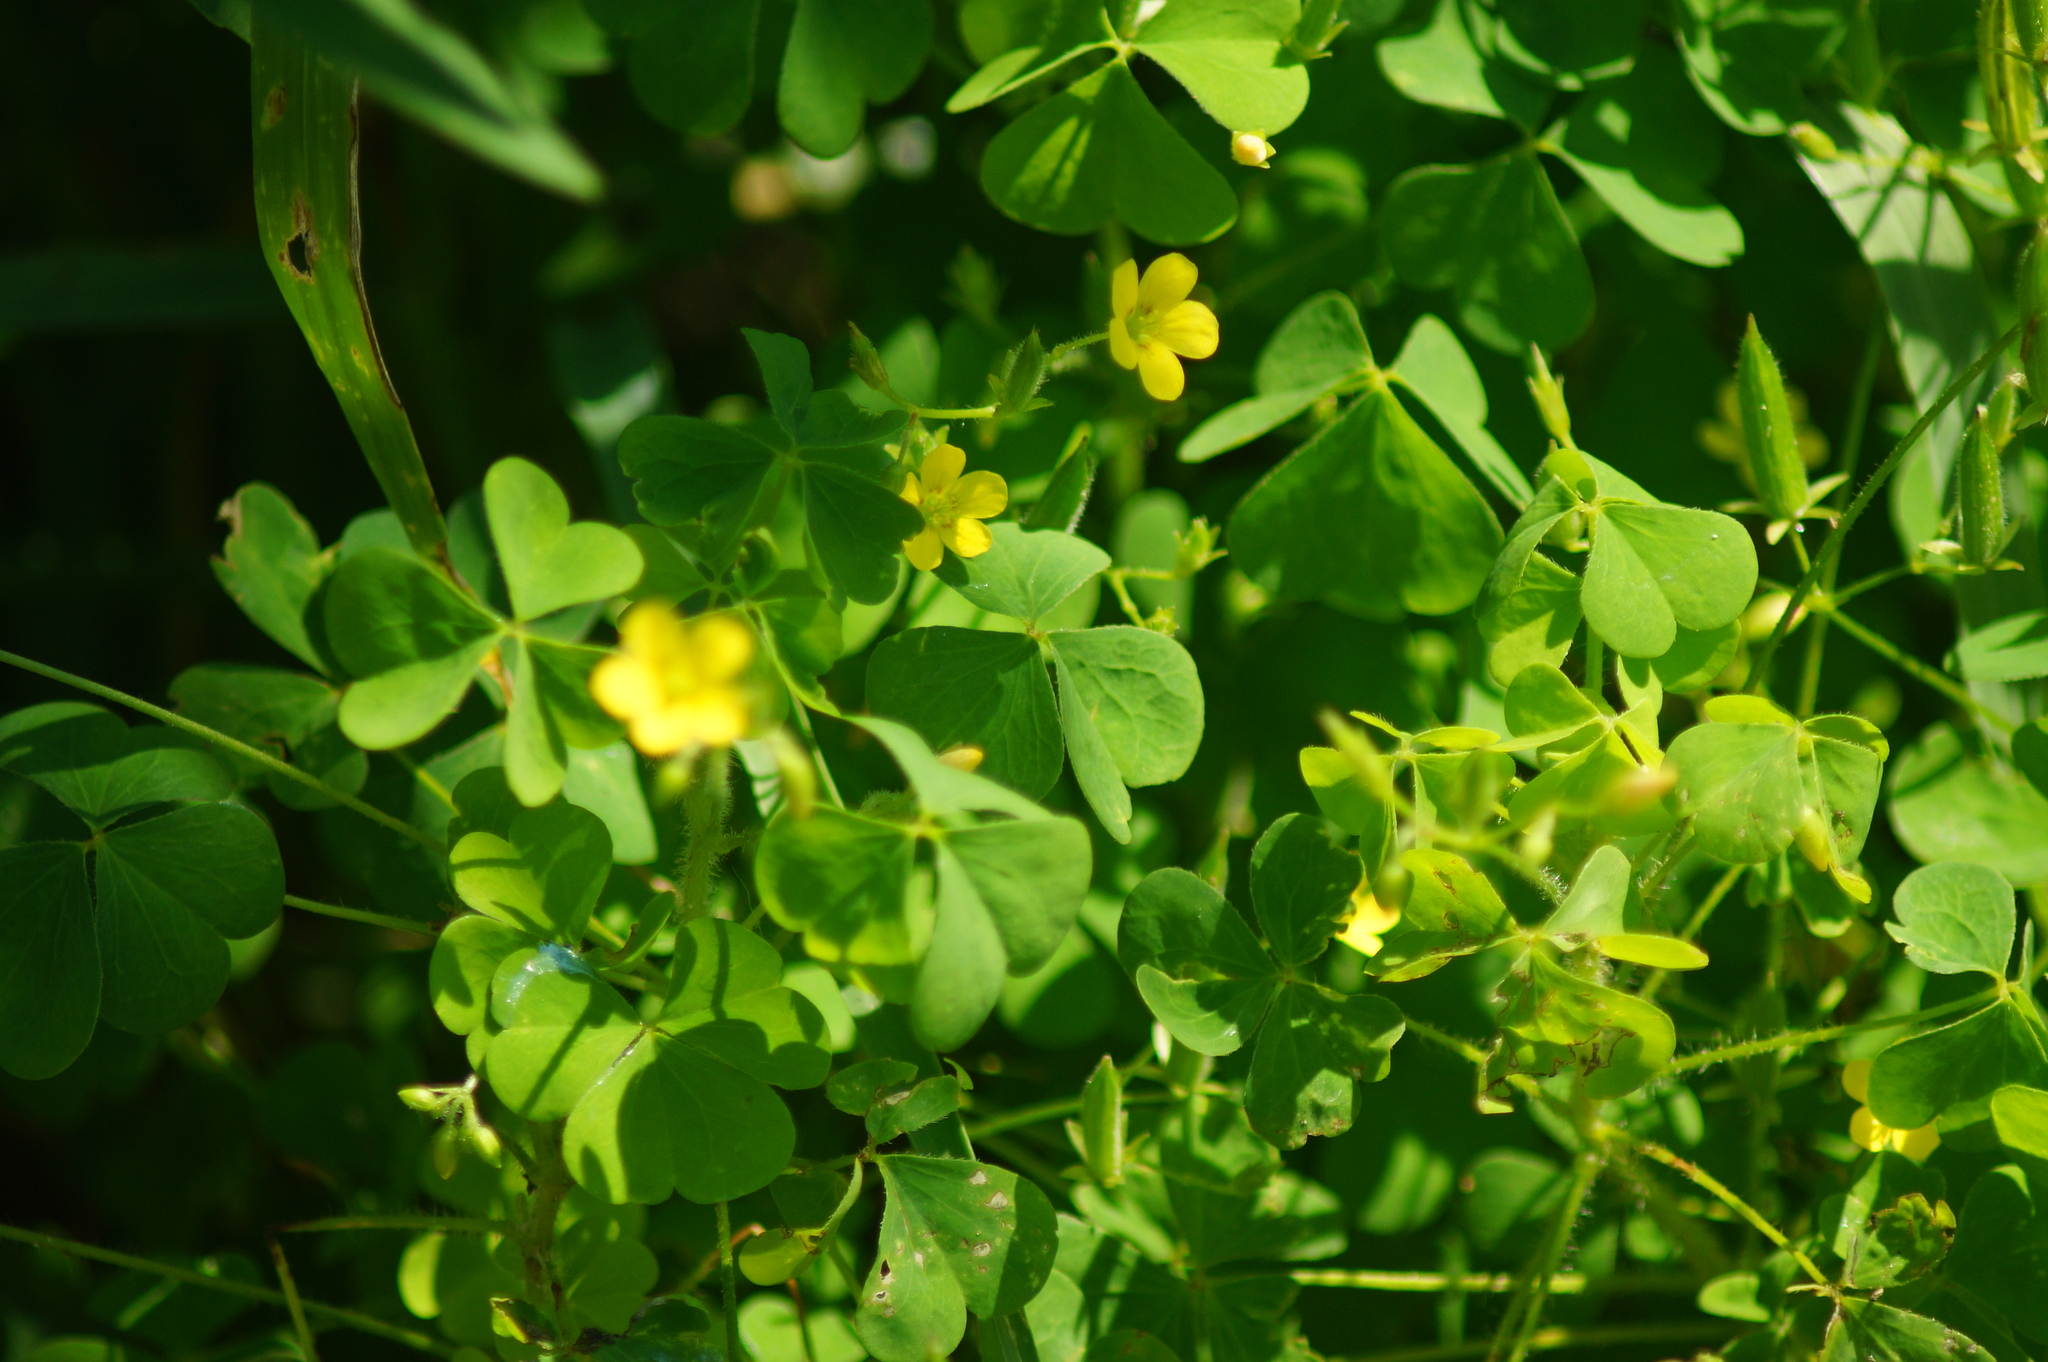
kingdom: Plantae
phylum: Tracheophyta
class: Magnoliopsida
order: Oxalidales
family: Oxalidaceae
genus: Oxalis
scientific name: Oxalis stricta
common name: Upright yellow-sorrel
